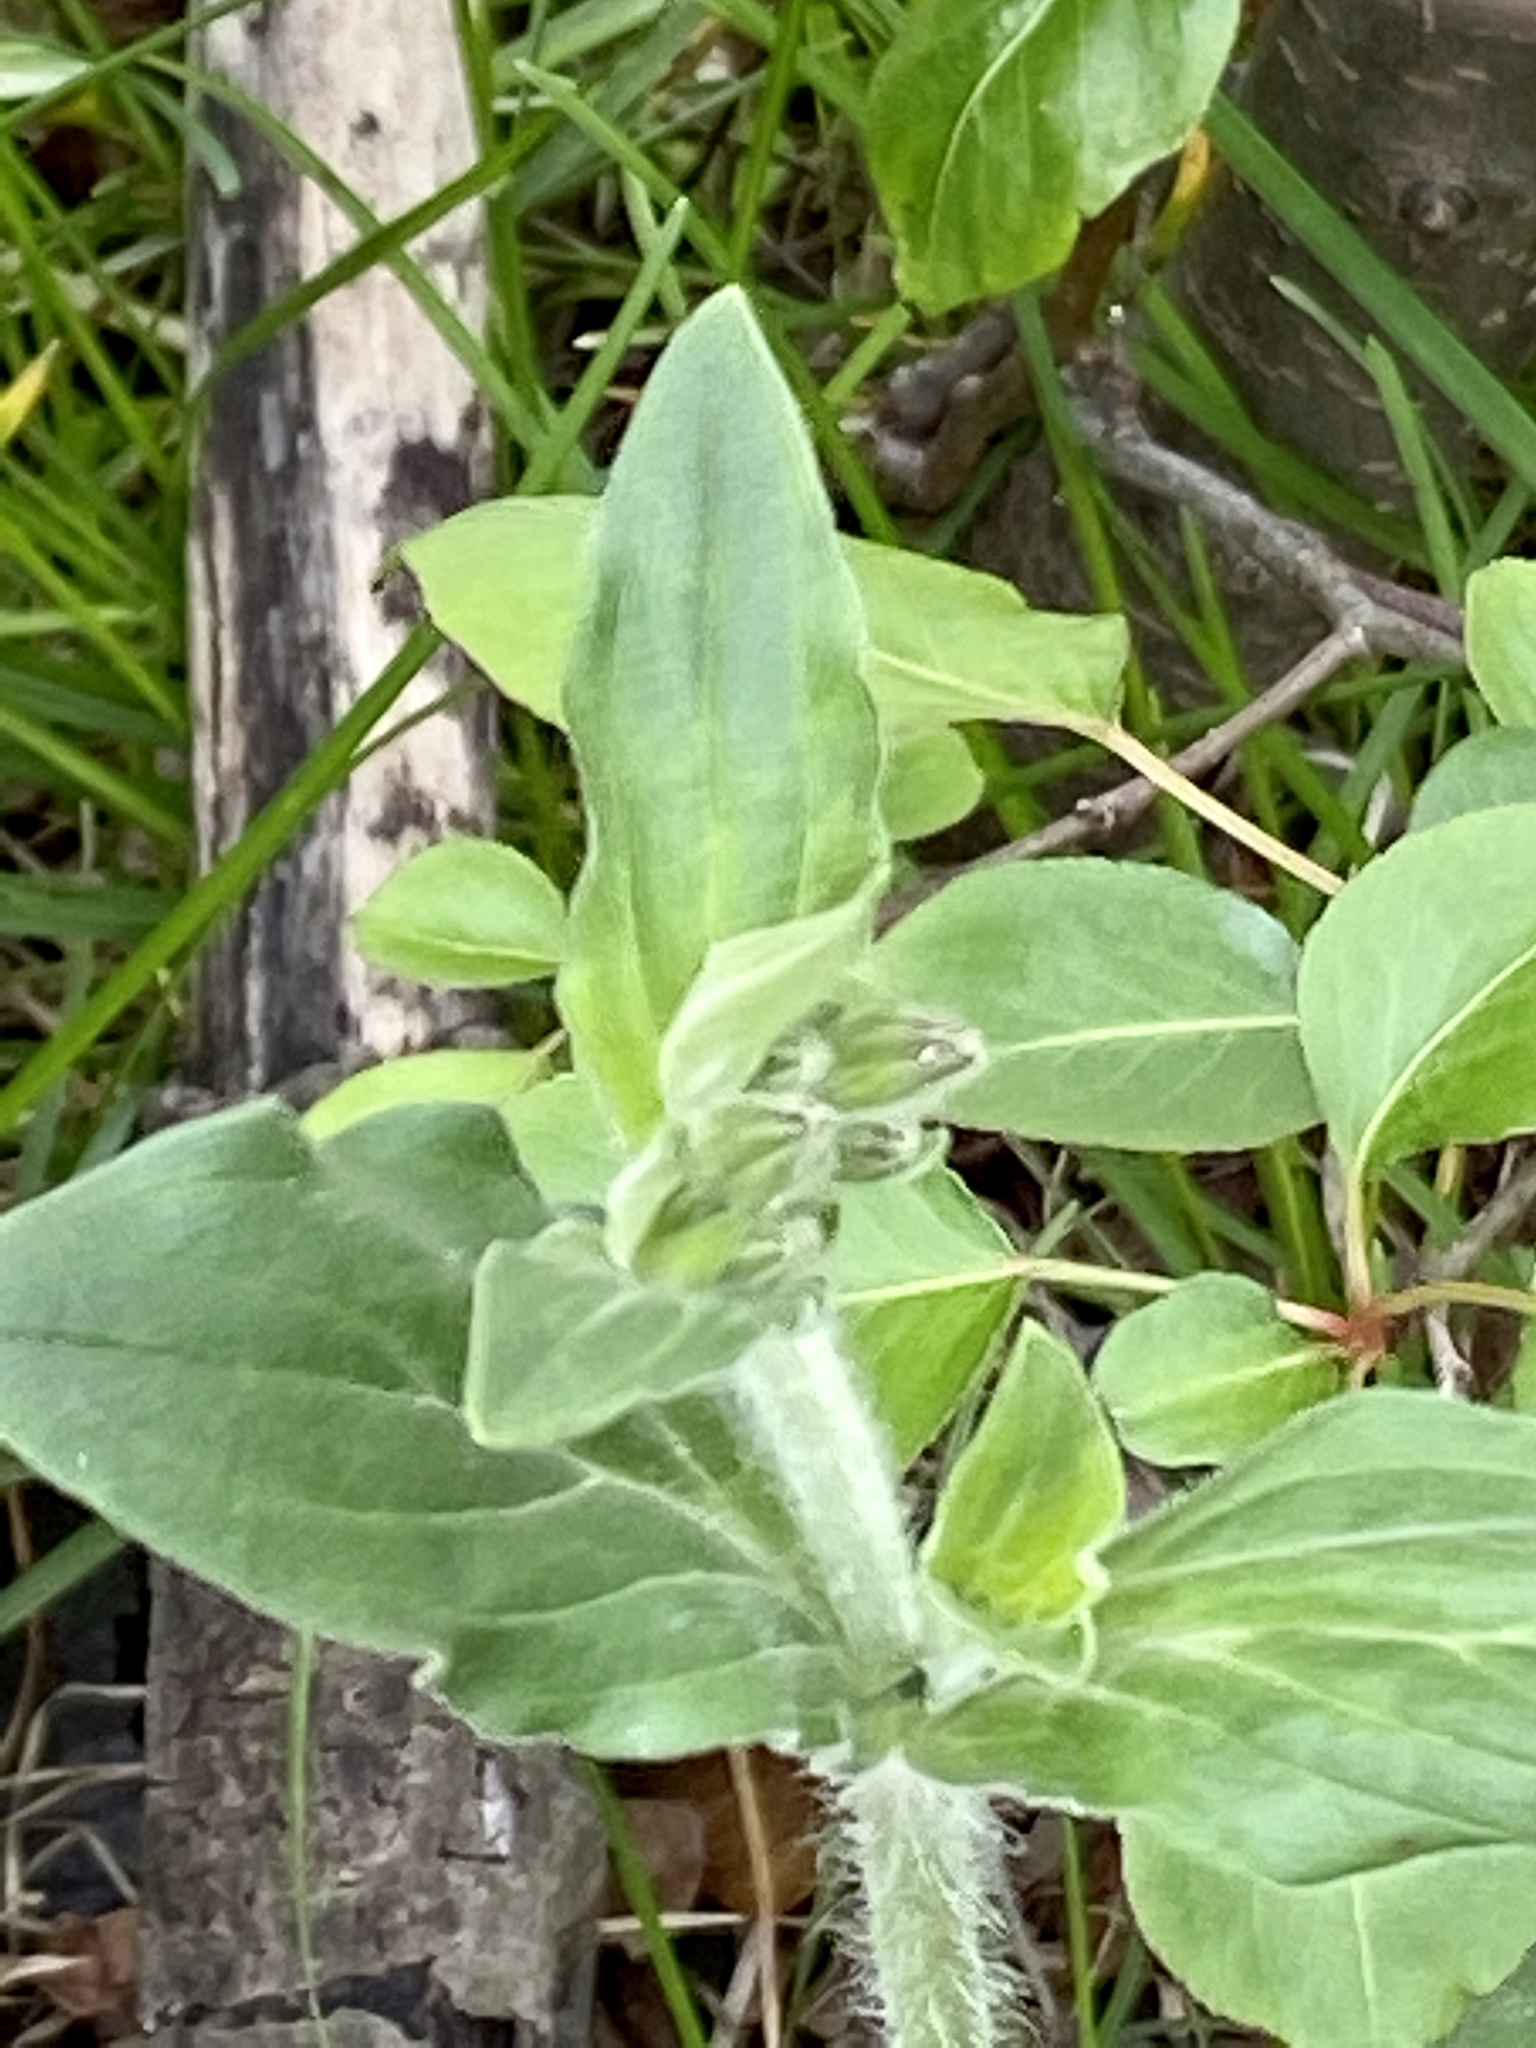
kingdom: Plantae
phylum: Tracheophyta
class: Magnoliopsida
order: Caryophyllales
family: Caryophyllaceae
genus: Silene
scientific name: Silene latifolia
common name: White campion
